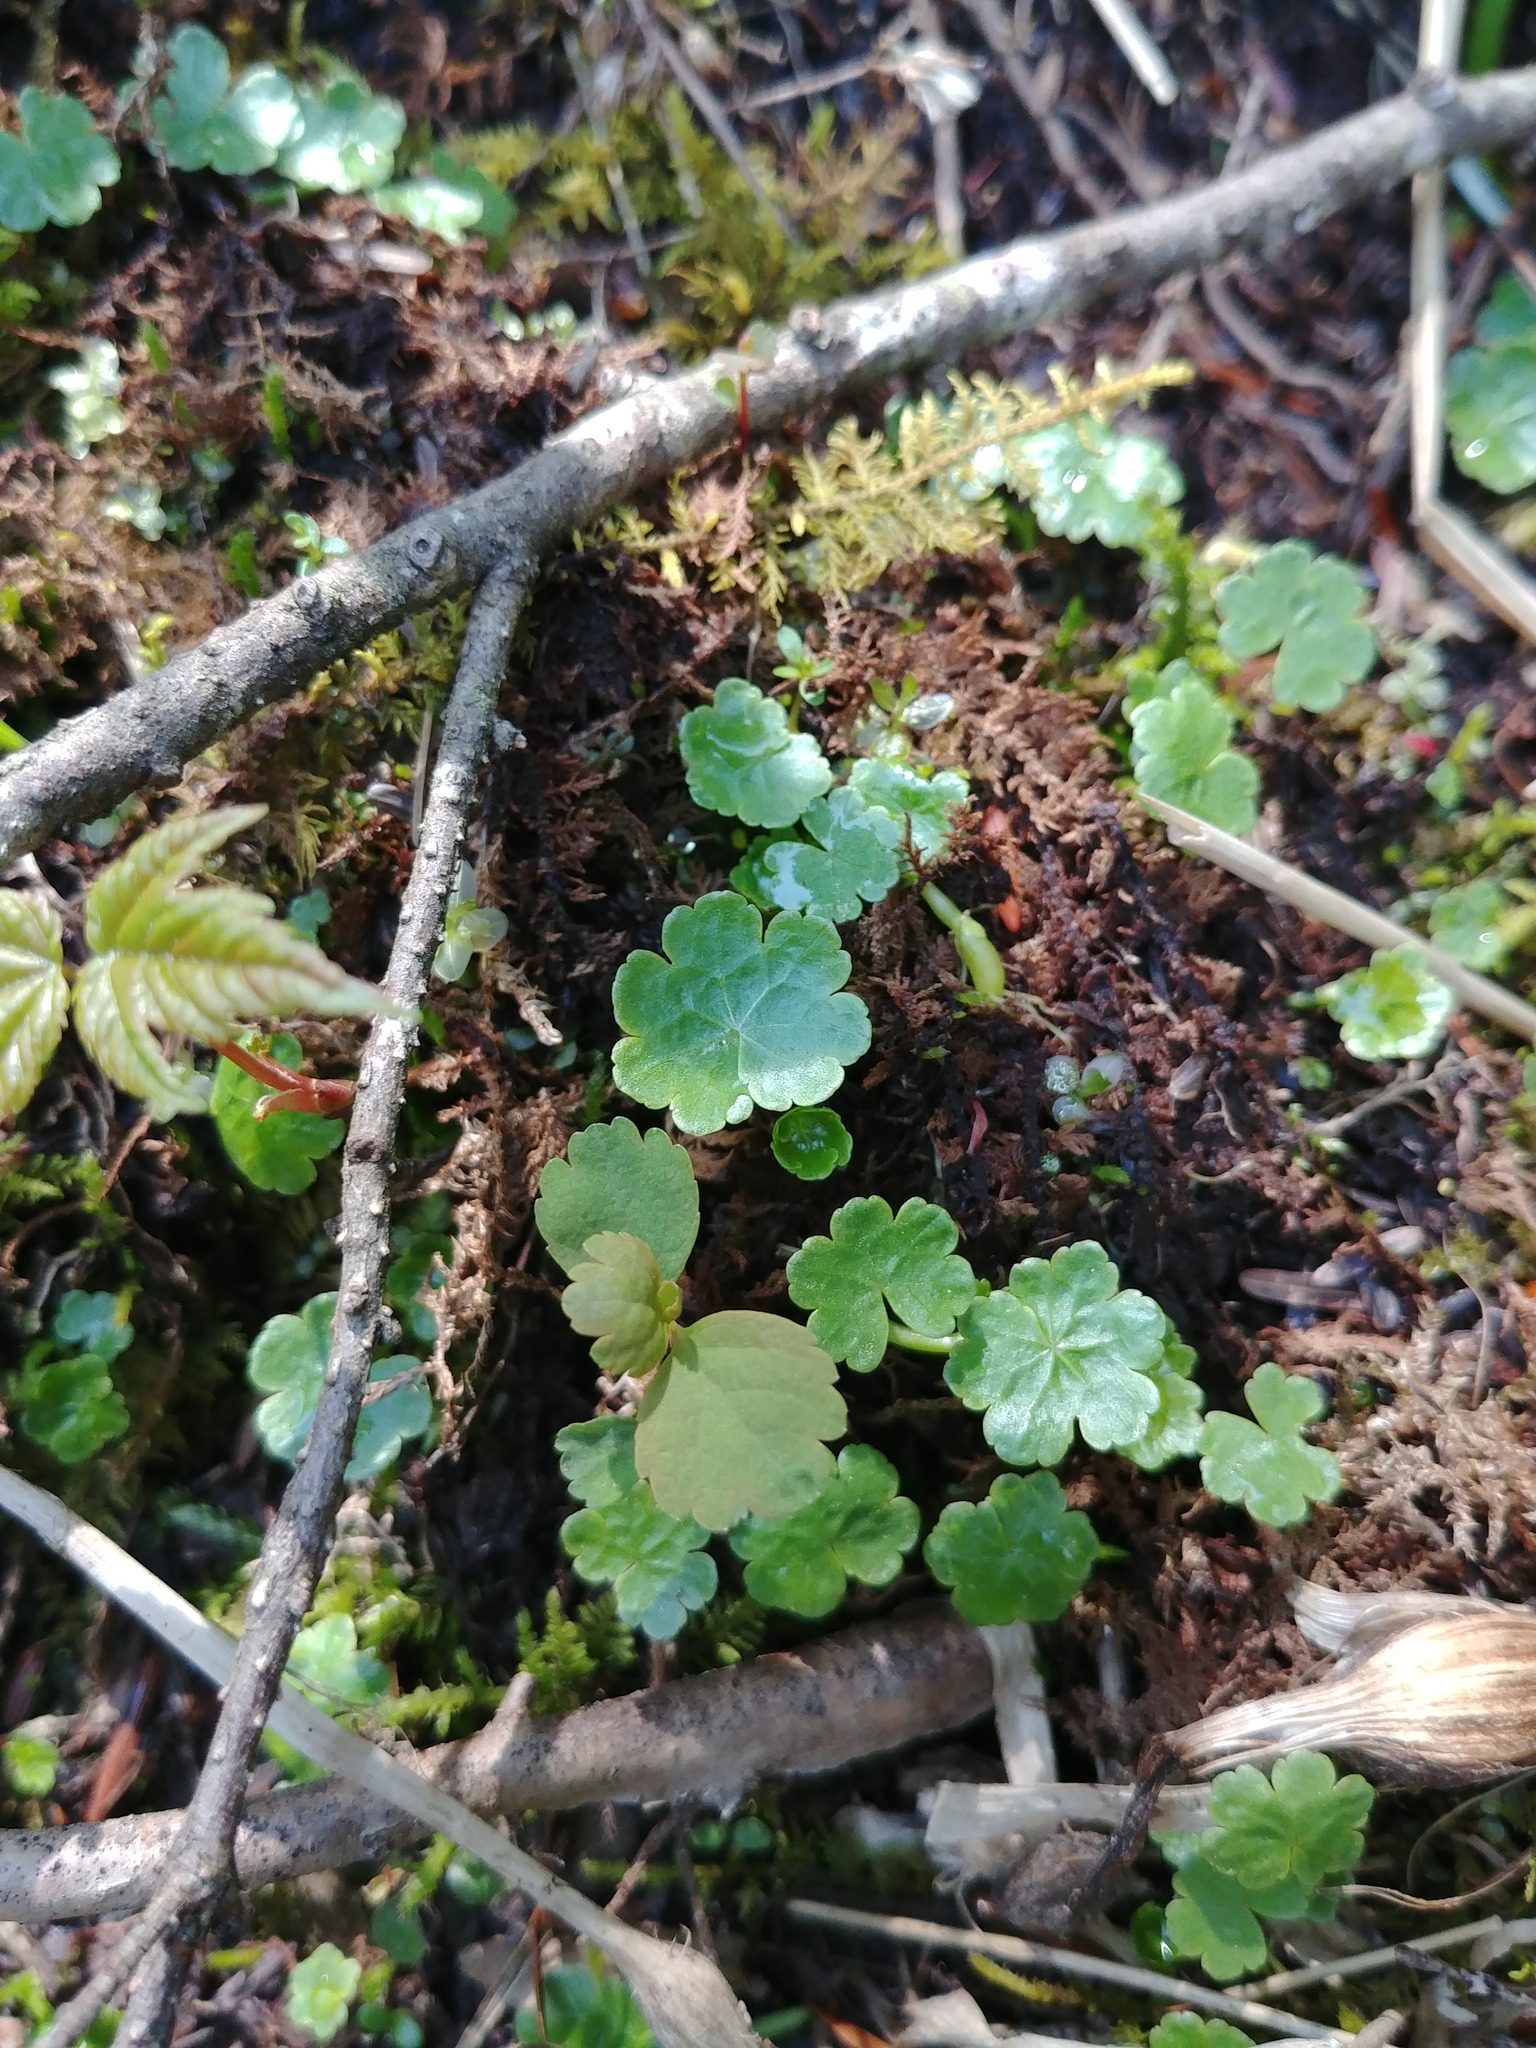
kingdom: Plantae
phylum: Tracheophyta
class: Magnoliopsida
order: Apiales
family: Araliaceae
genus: Hydrocotyle
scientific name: Hydrocotyle americana
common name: American water-pennywort
